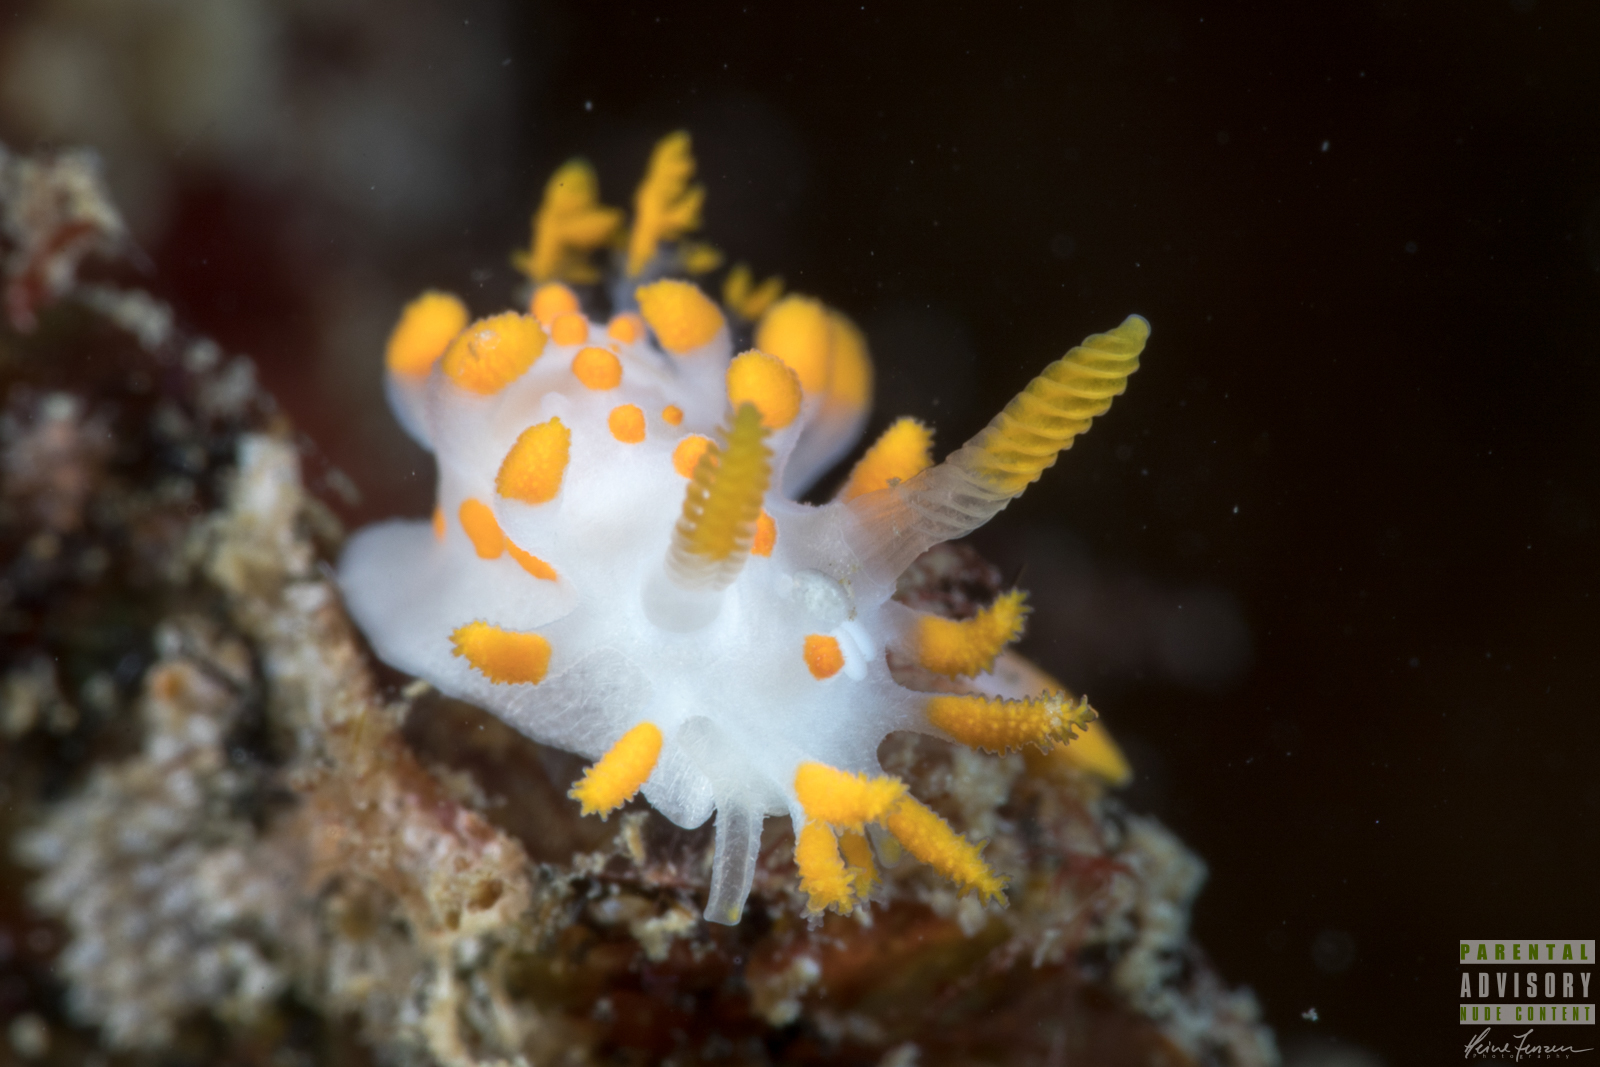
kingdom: Animalia
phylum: Mollusca
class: Gastropoda
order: Nudibranchia
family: Polyceridae
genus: Limacia
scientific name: Limacia clavigera
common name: Orange-clubbed sea slug
